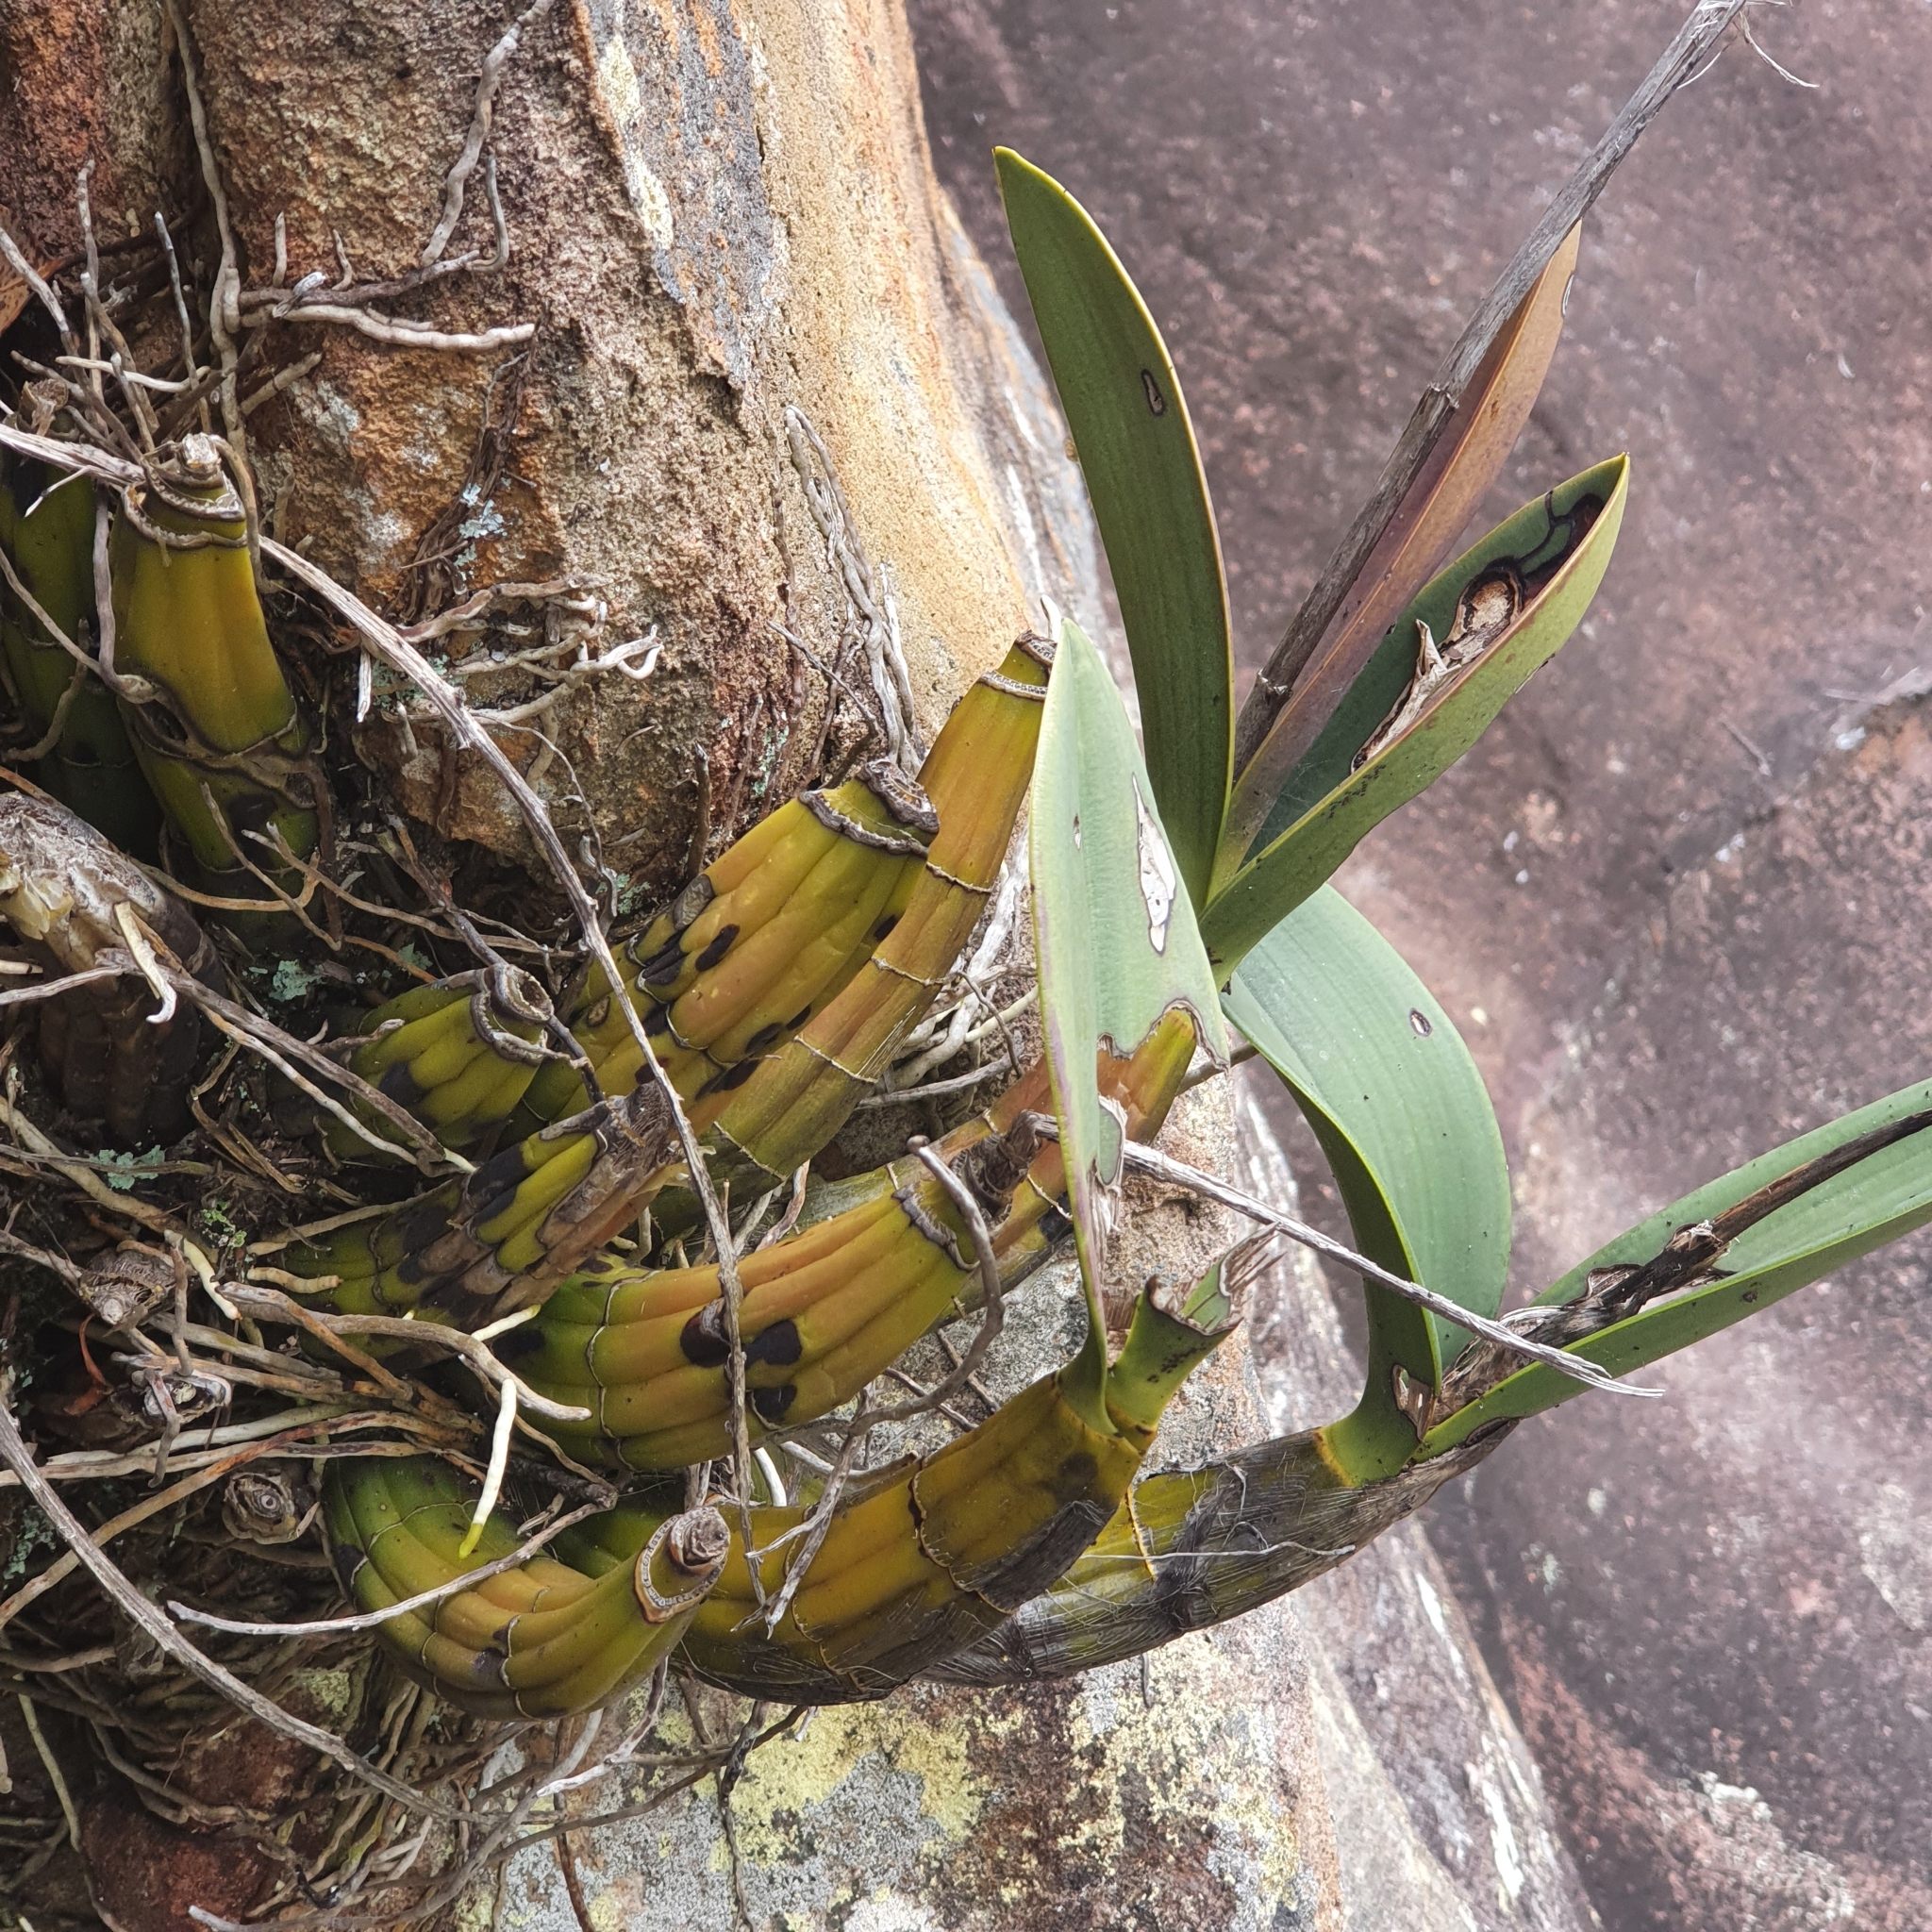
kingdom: Plantae
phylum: Tracheophyta
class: Liliopsida
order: Asparagales
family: Orchidaceae
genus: Dendrobium
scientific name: Dendrobium speciosum
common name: Rock-lily
